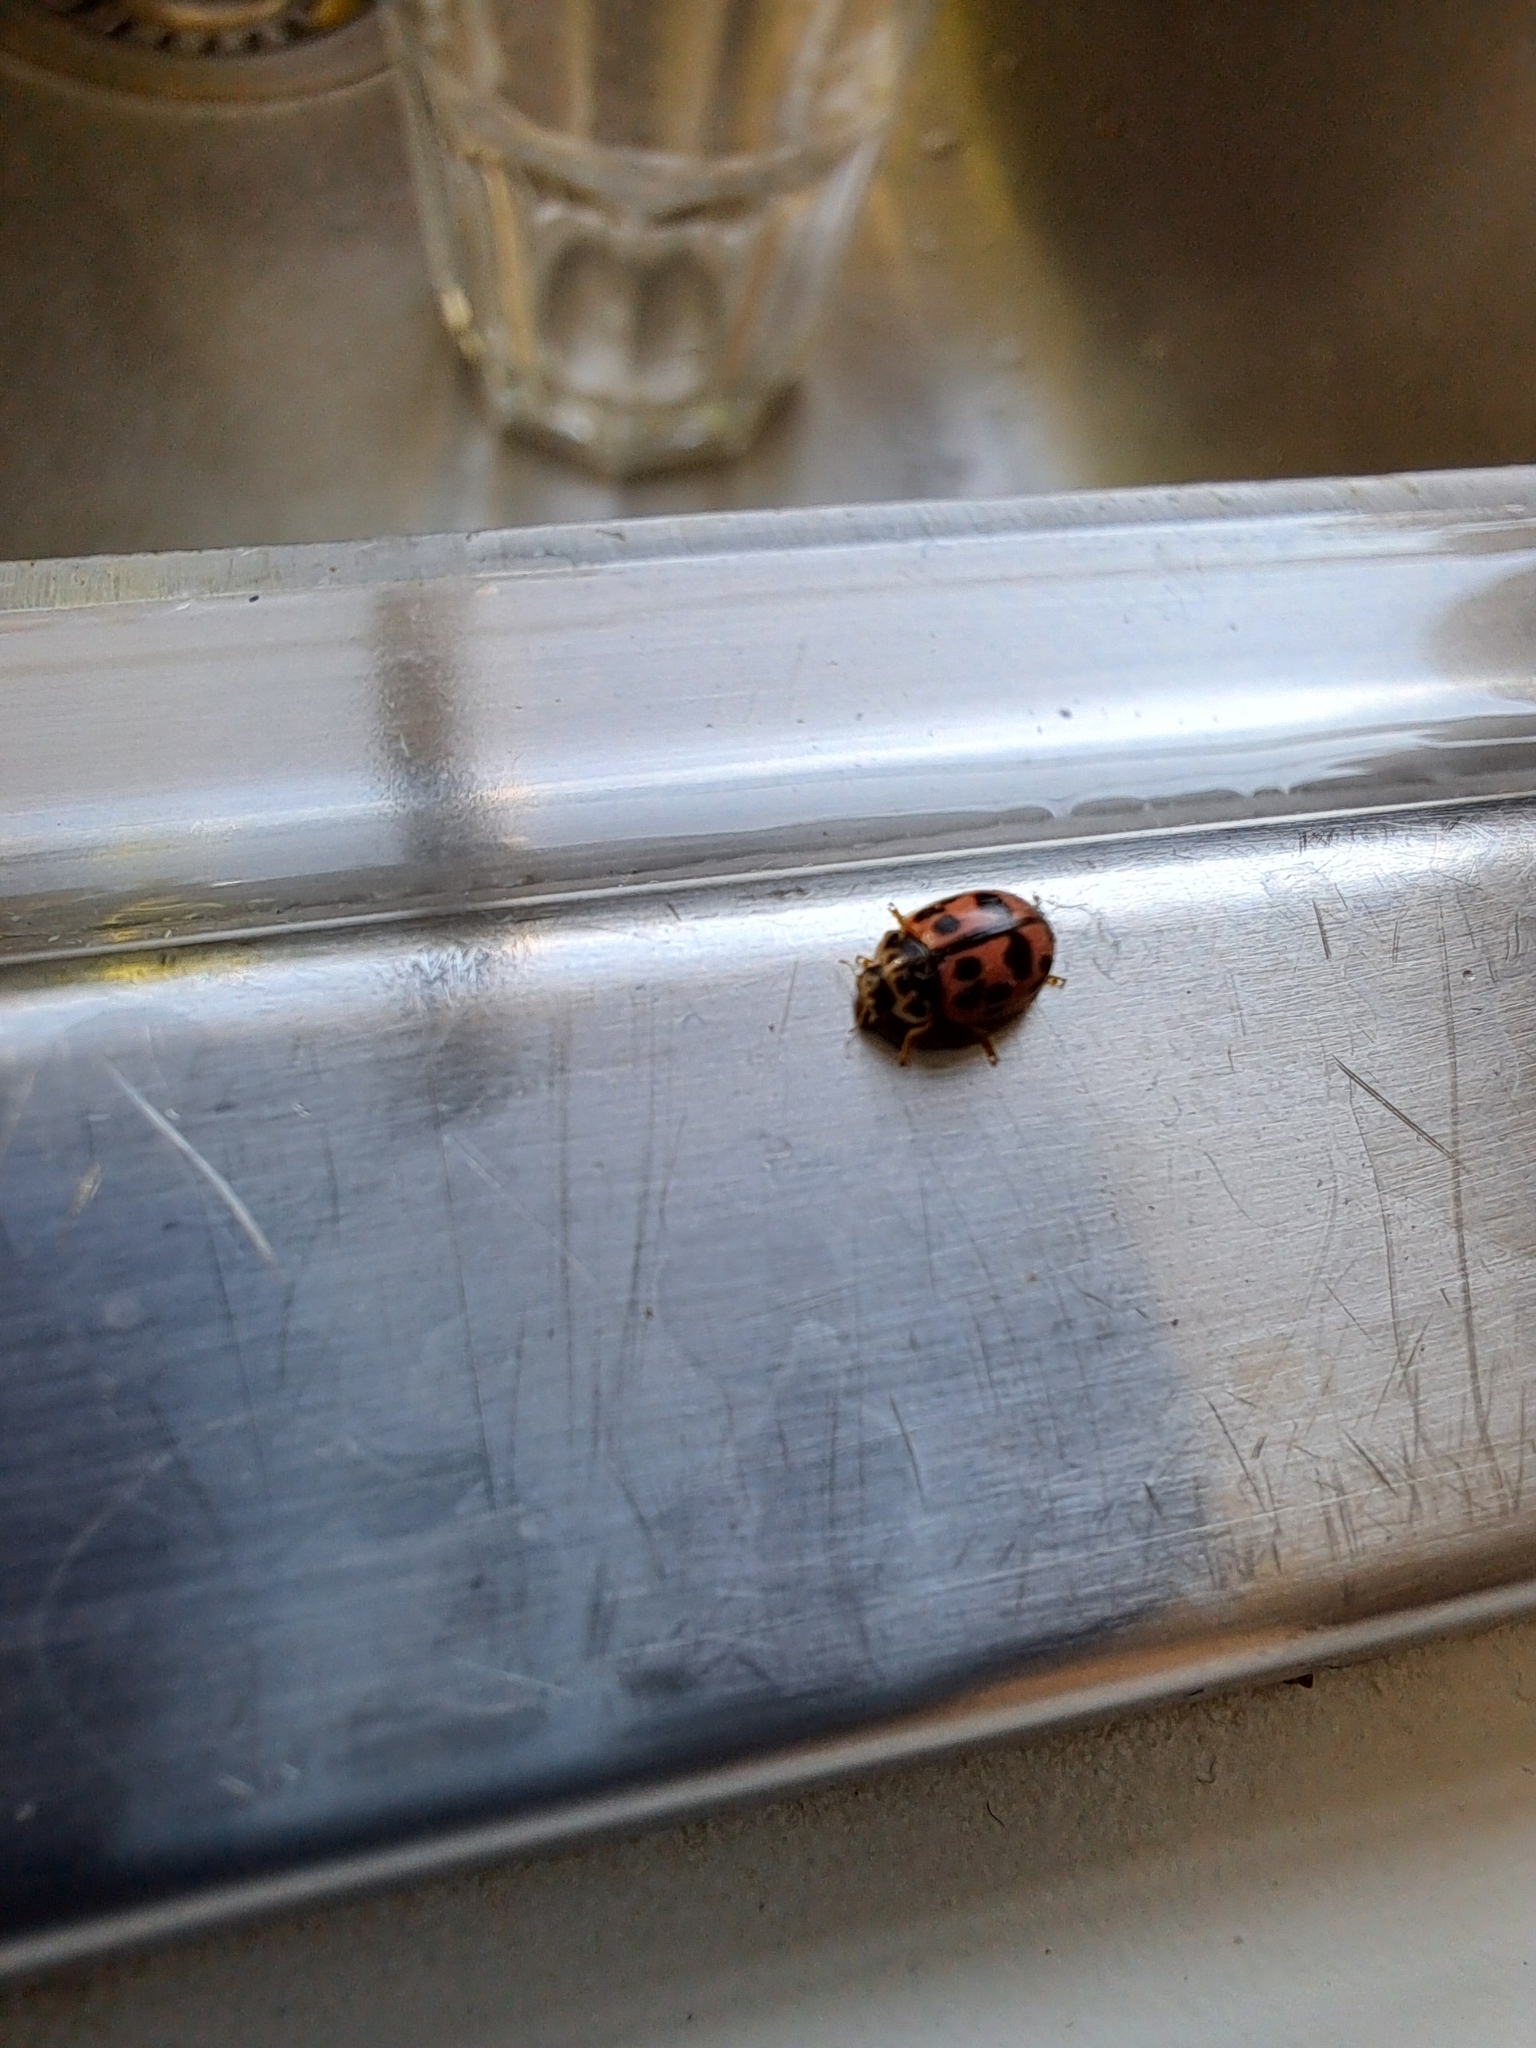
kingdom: Animalia
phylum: Arthropoda
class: Insecta
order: Coleoptera
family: Coccinellidae
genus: Oenopia
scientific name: Oenopia conglobata
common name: Ladybird beetle
